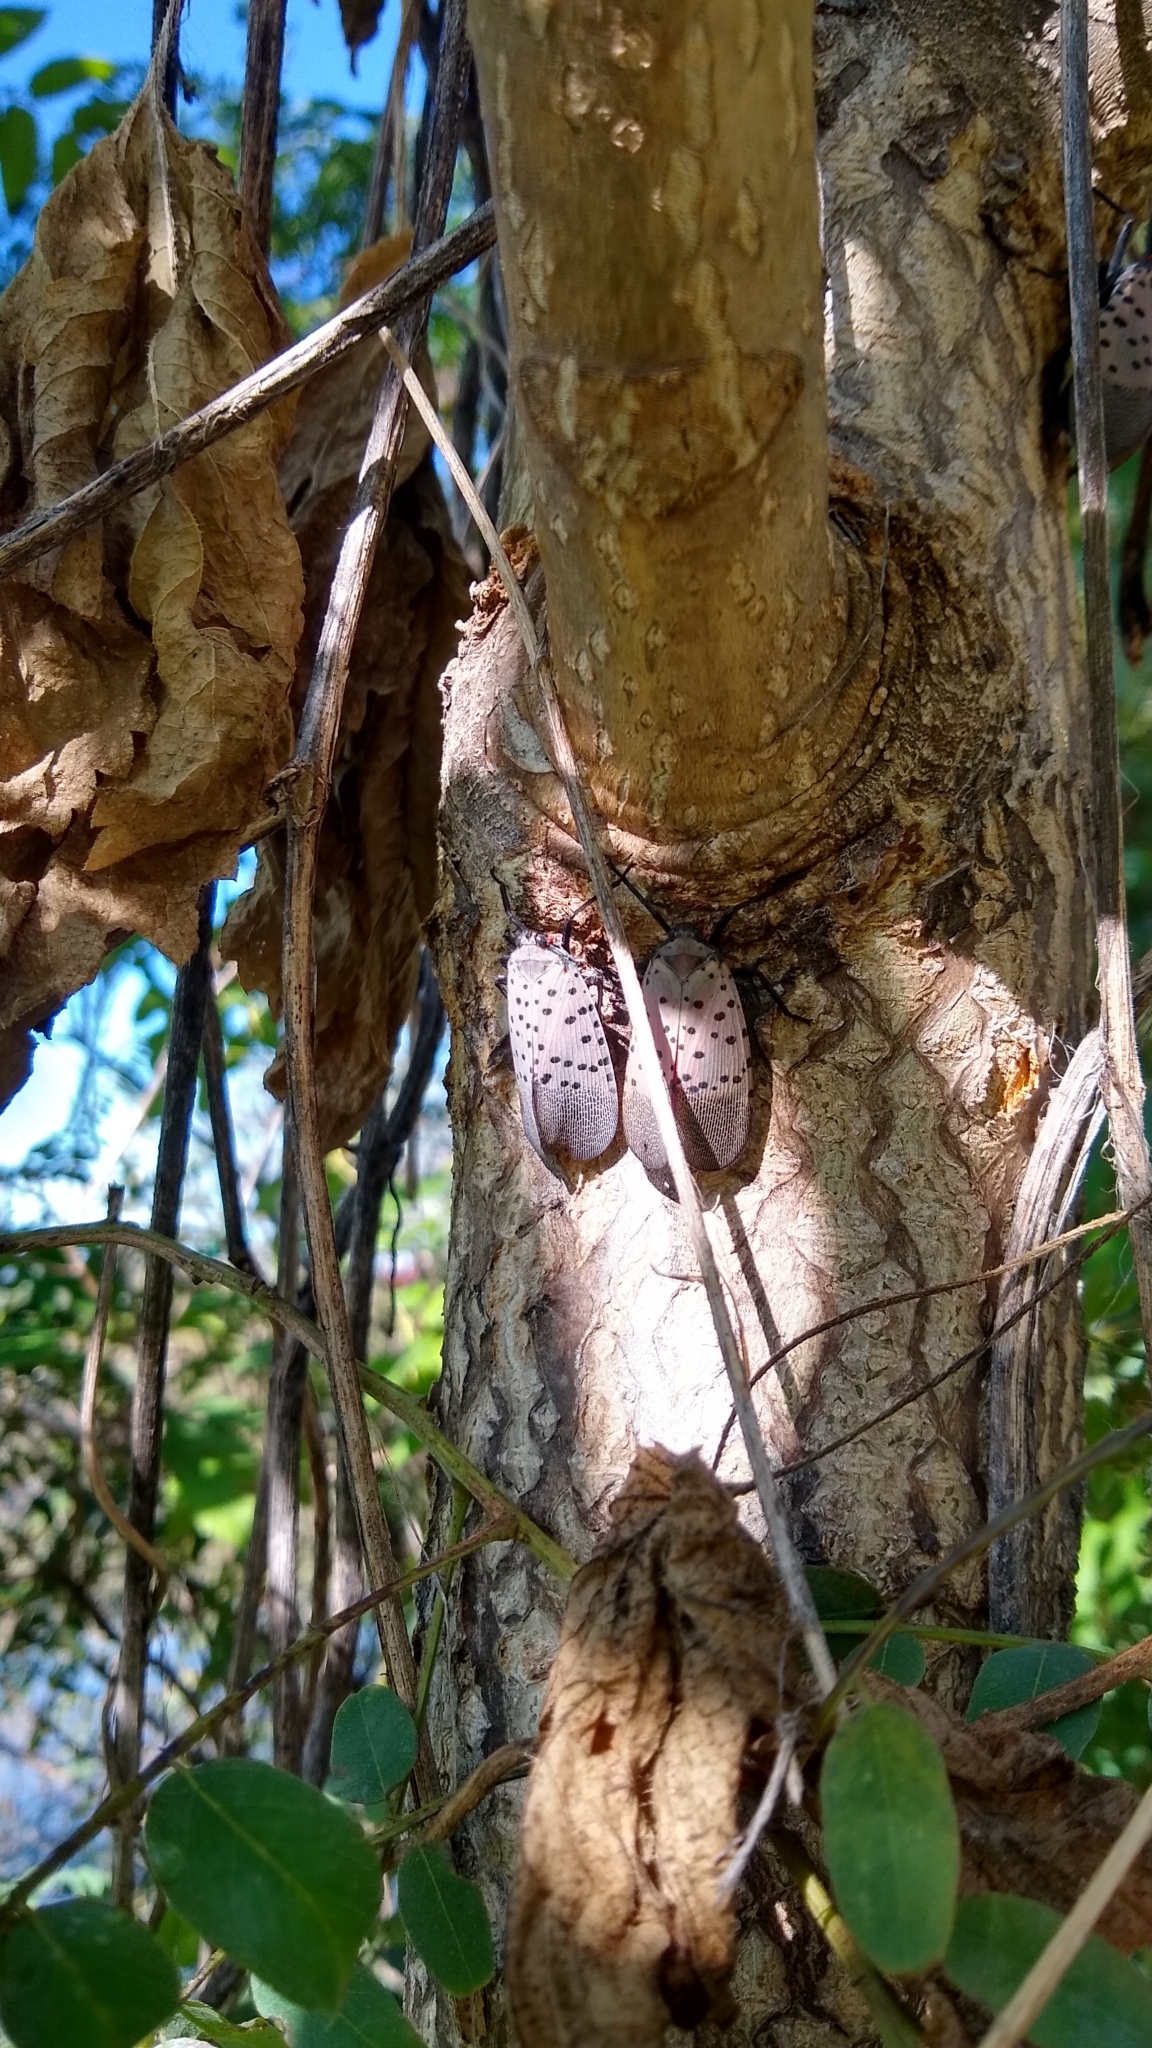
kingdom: Animalia
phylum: Arthropoda
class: Insecta
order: Hemiptera
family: Fulgoridae
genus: Lycorma
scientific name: Lycorma delicatula
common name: Spotted lanternfly
